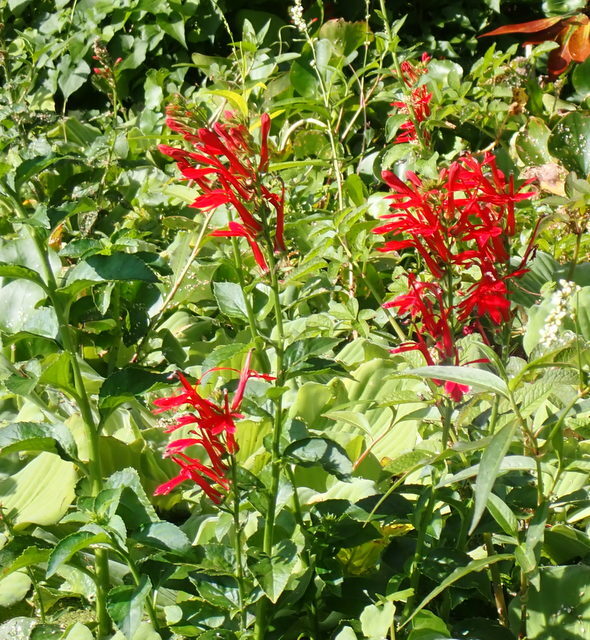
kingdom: Plantae
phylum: Tracheophyta
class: Magnoliopsida
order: Asterales
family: Campanulaceae
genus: Lobelia
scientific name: Lobelia cardinalis
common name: Cardinal flower
